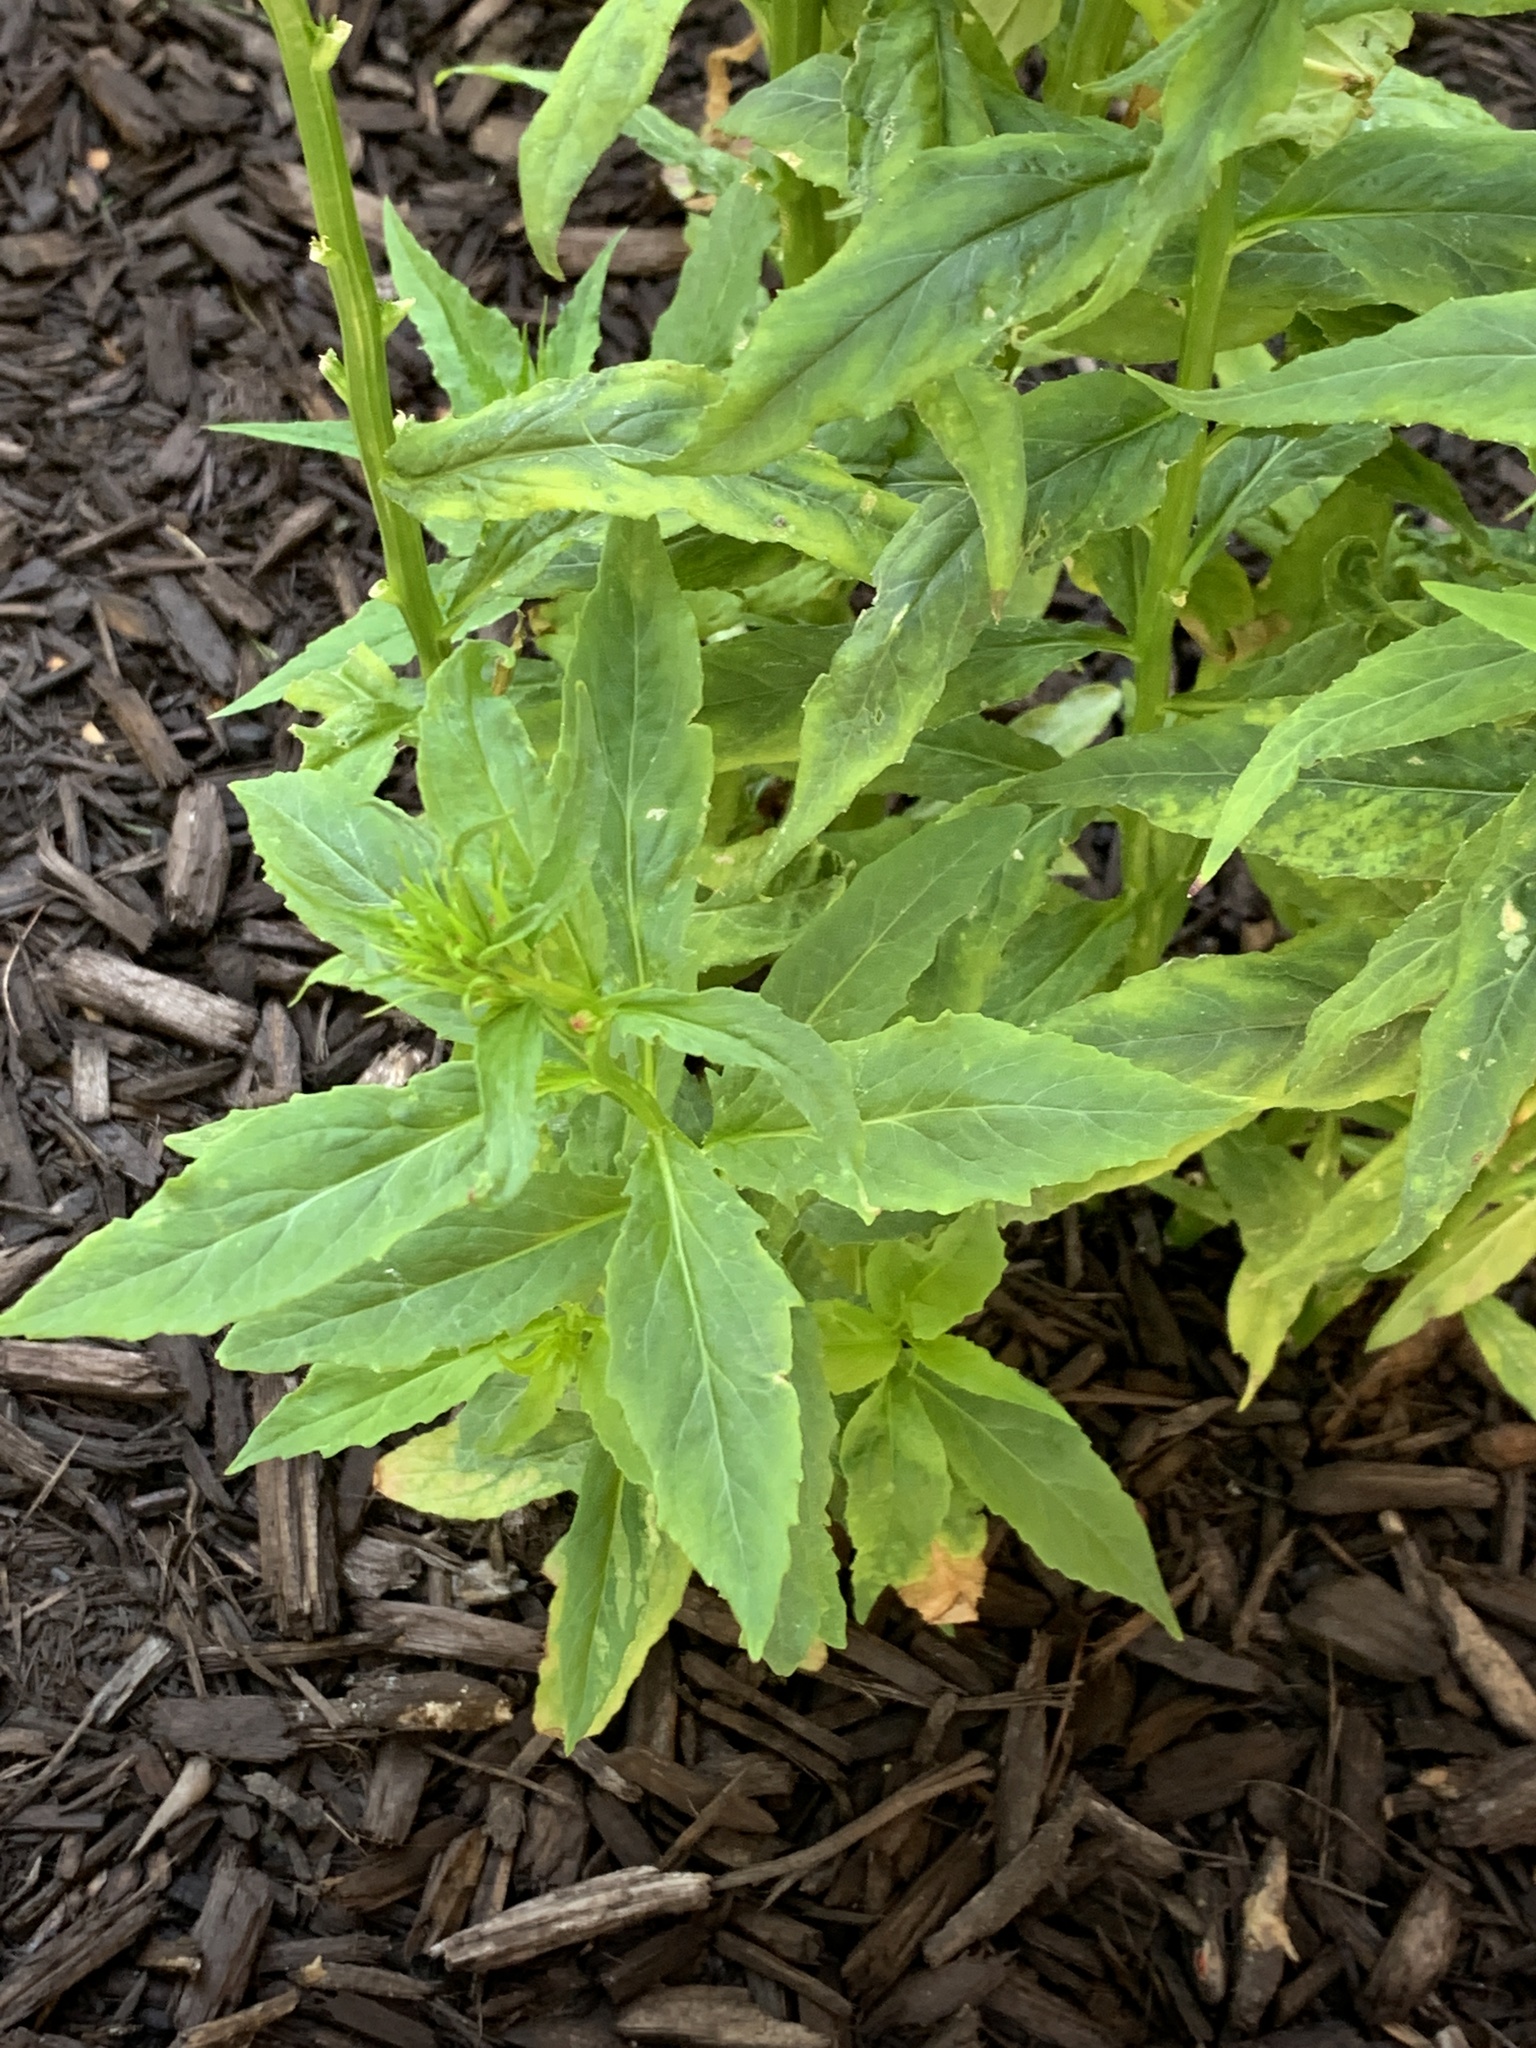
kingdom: Plantae
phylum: Tracheophyta
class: Magnoliopsida
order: Asterales
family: Asteraceae
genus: Erechtites
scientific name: Erechtites hieraciifolius
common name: American burnweed
